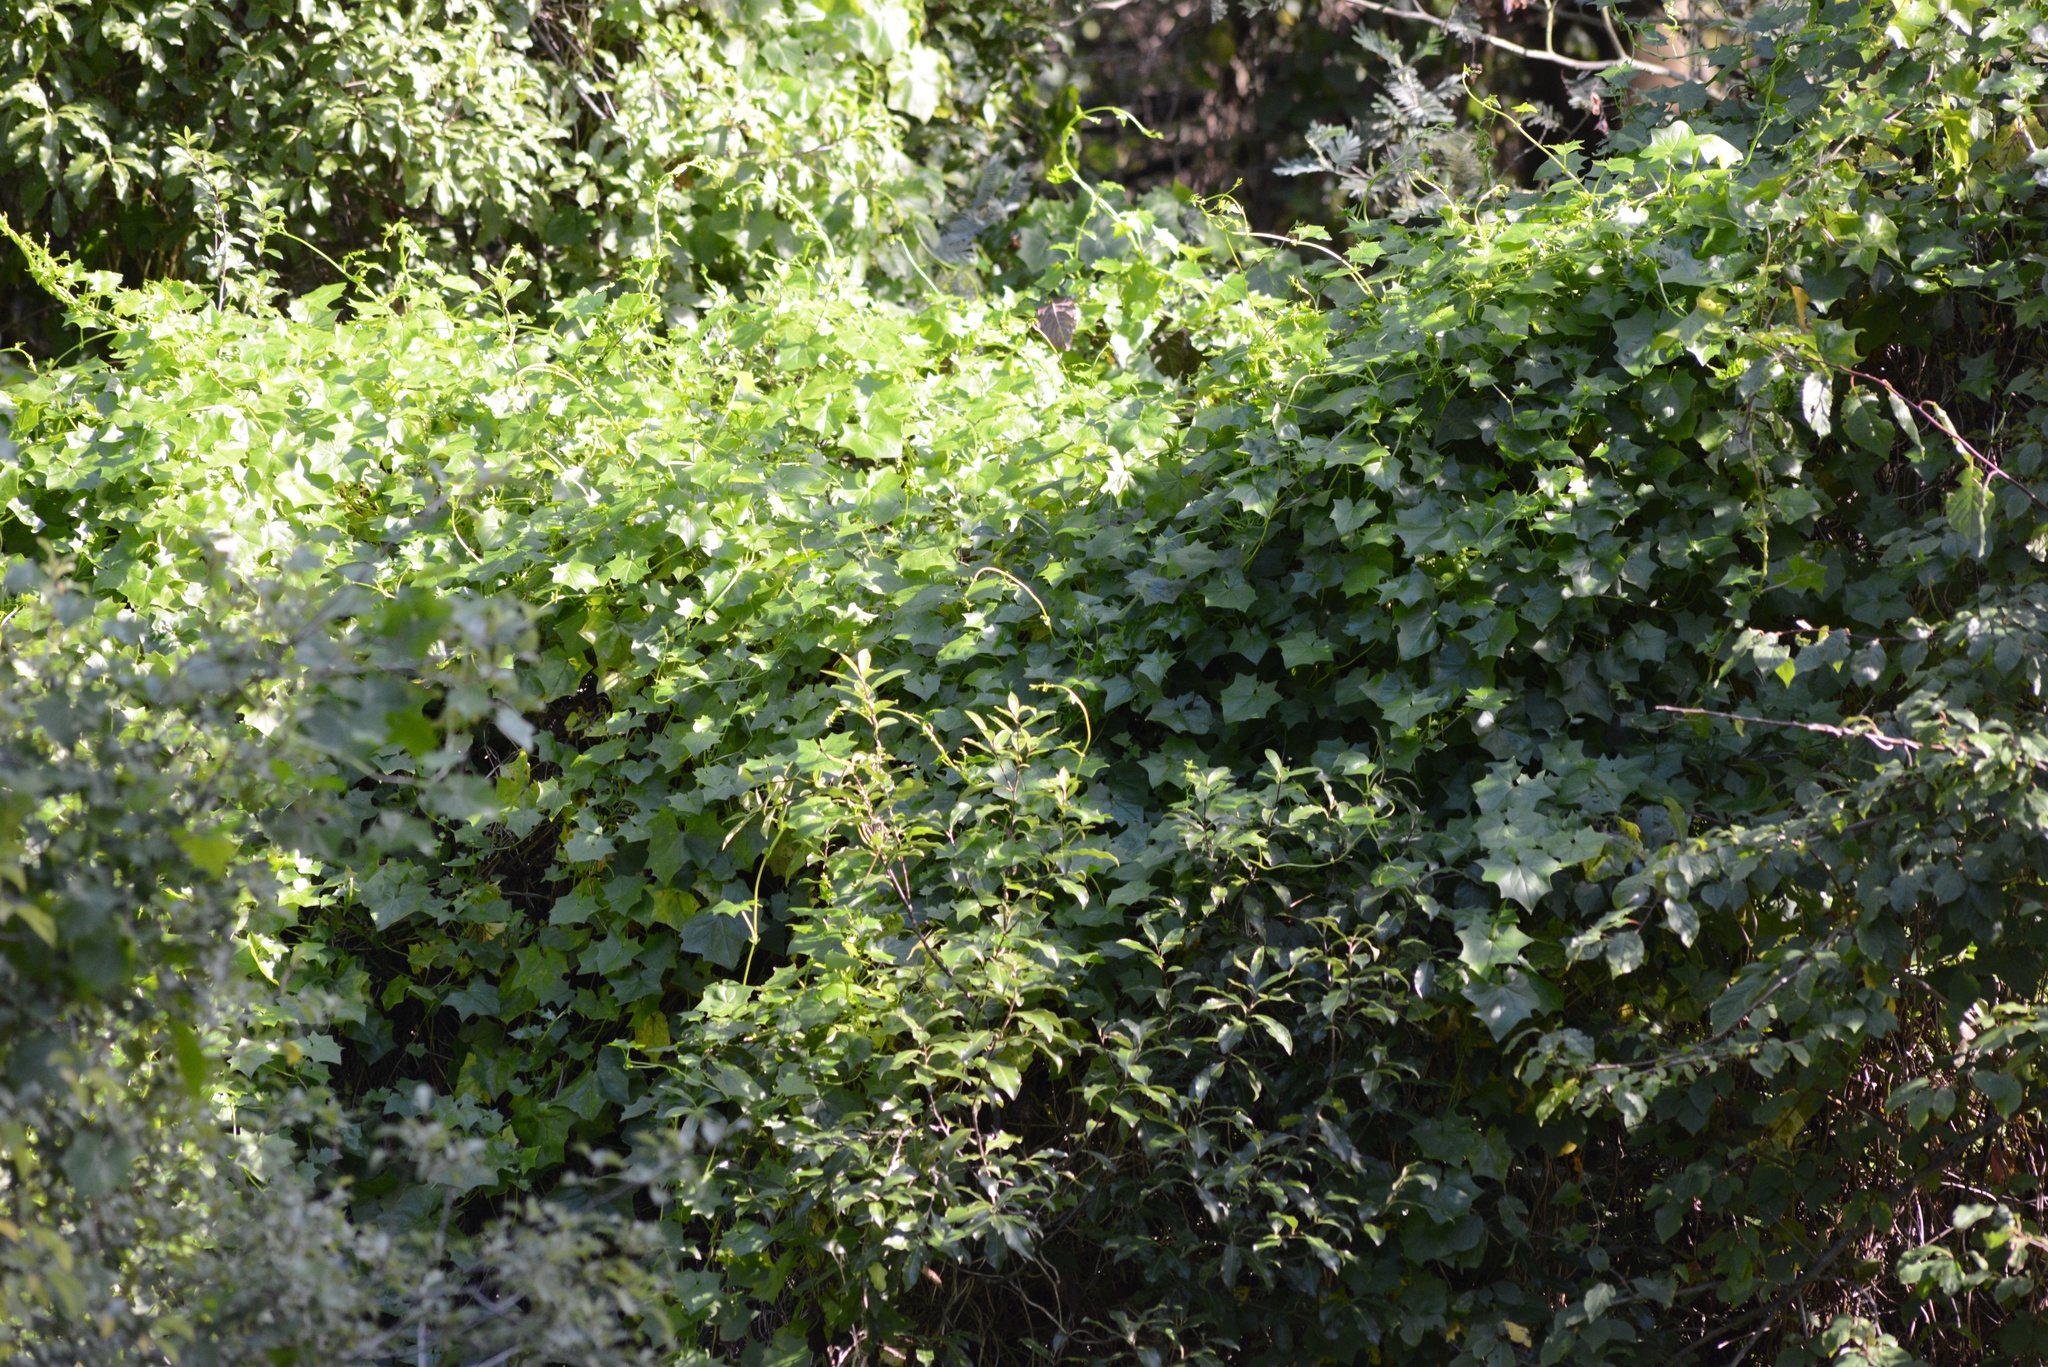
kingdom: Plantae
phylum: Tracheophyta
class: Magnoliopsida
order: Asterales
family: Asteraceae
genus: Delairea
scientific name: Delairea odorata
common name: Cape-ivy
